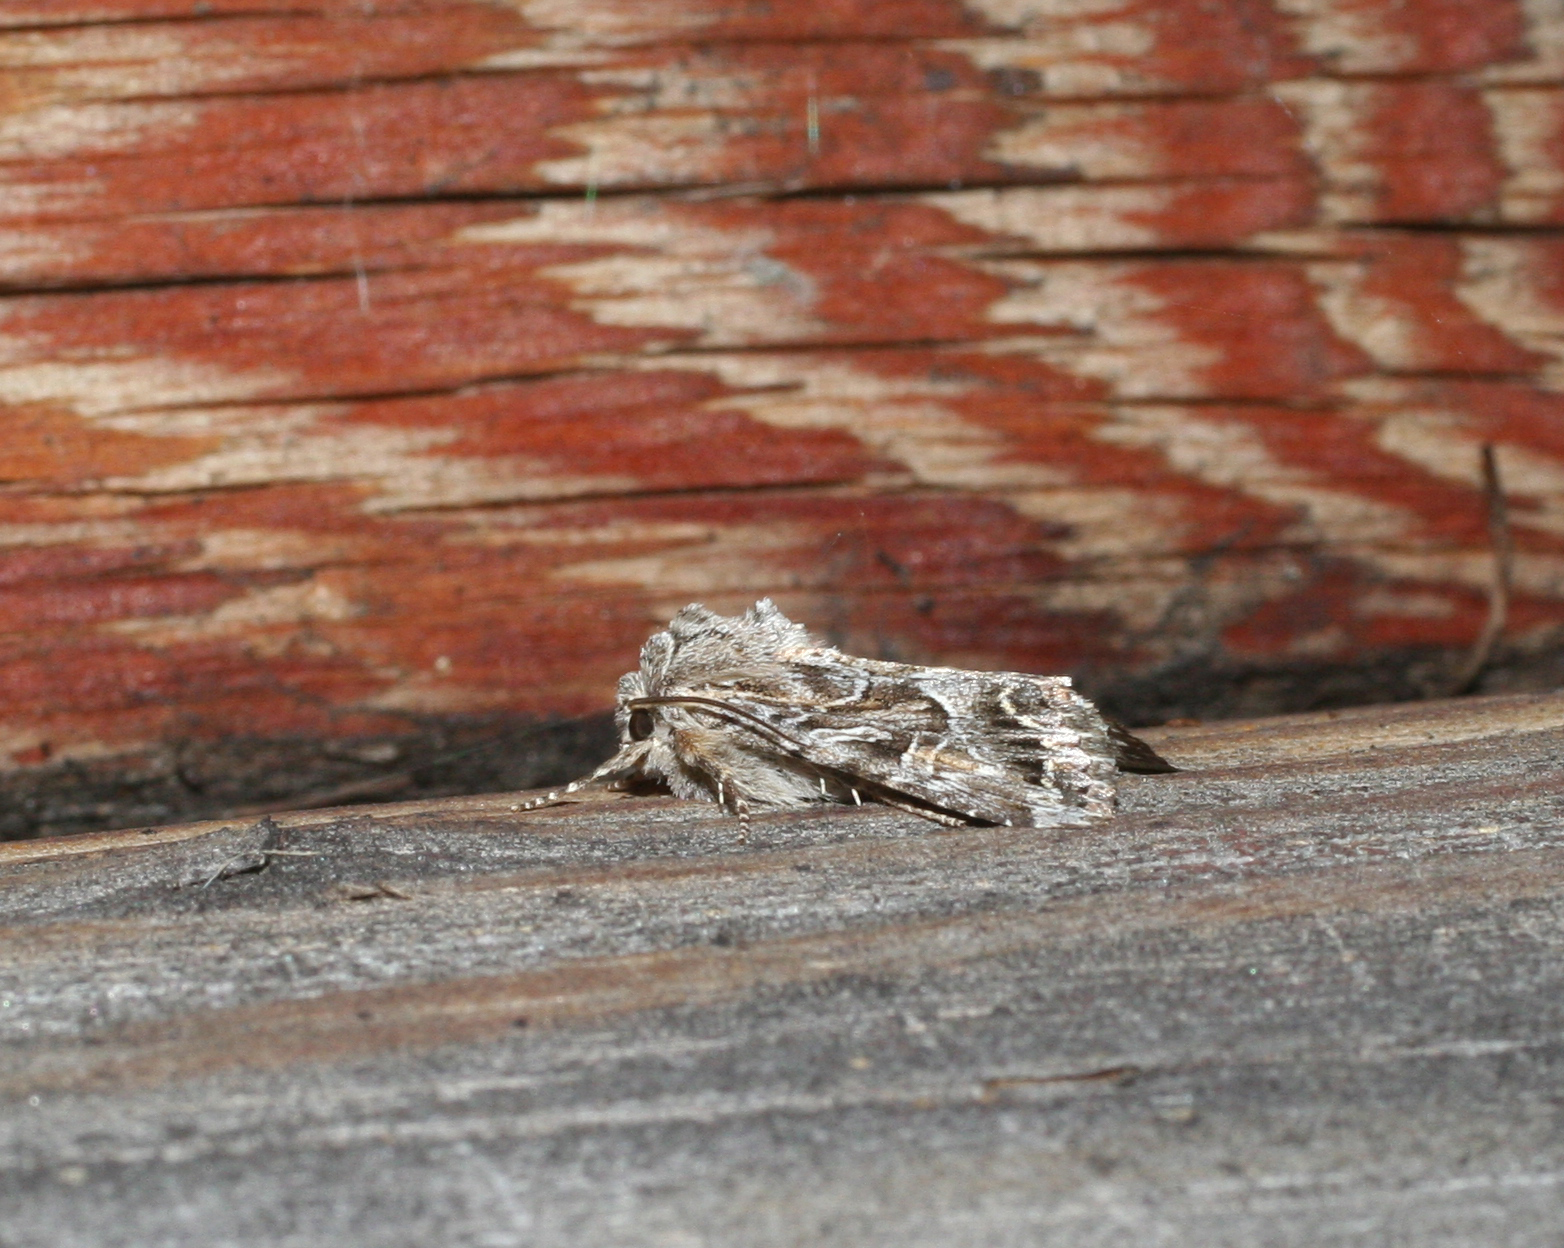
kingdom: Animalia
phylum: Arthropoda
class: Insecta
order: Lepidoptera
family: Noctuidae
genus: Apamea
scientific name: Apamea leucodon
